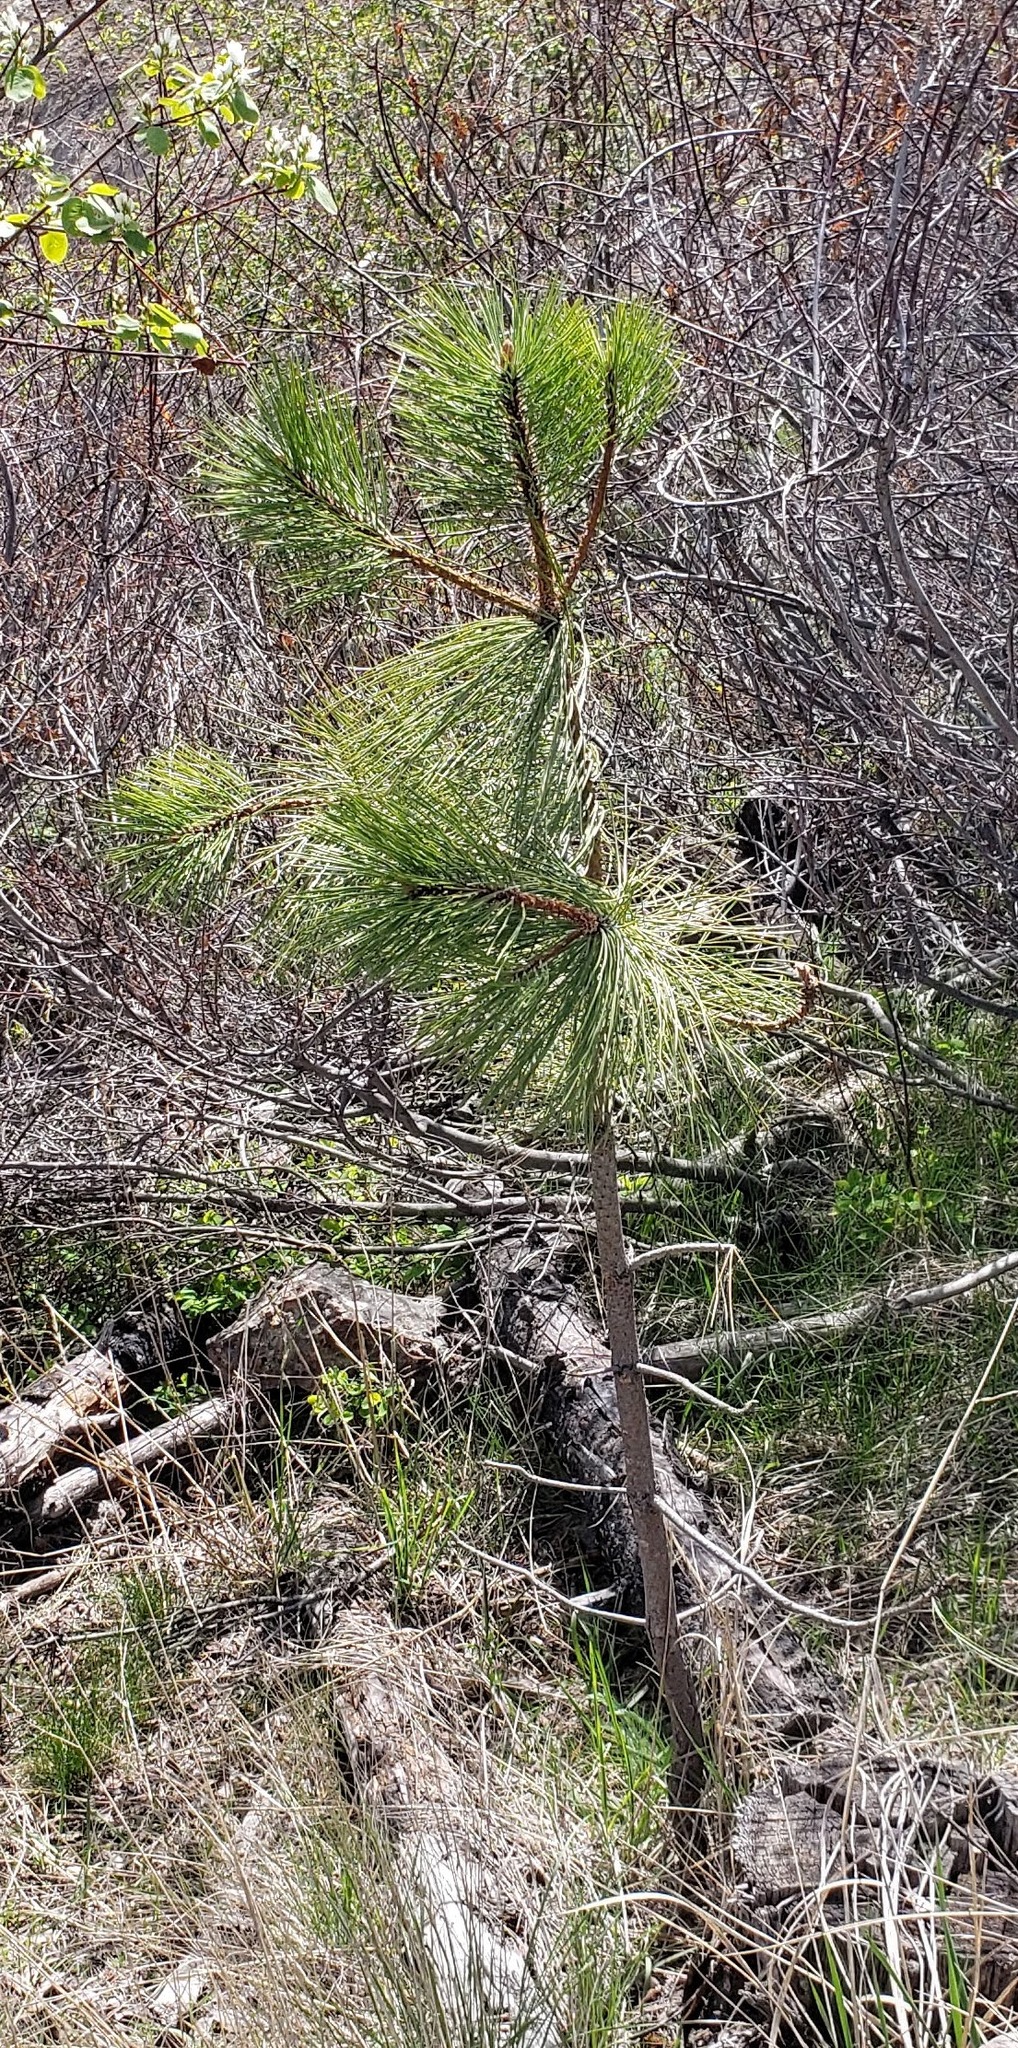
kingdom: Plantae
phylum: Tracheophyta
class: Pinopsida
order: Pinales
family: Pinaceae
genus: Pinus
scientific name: Pinus ponderosa
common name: Western yellow-pine
